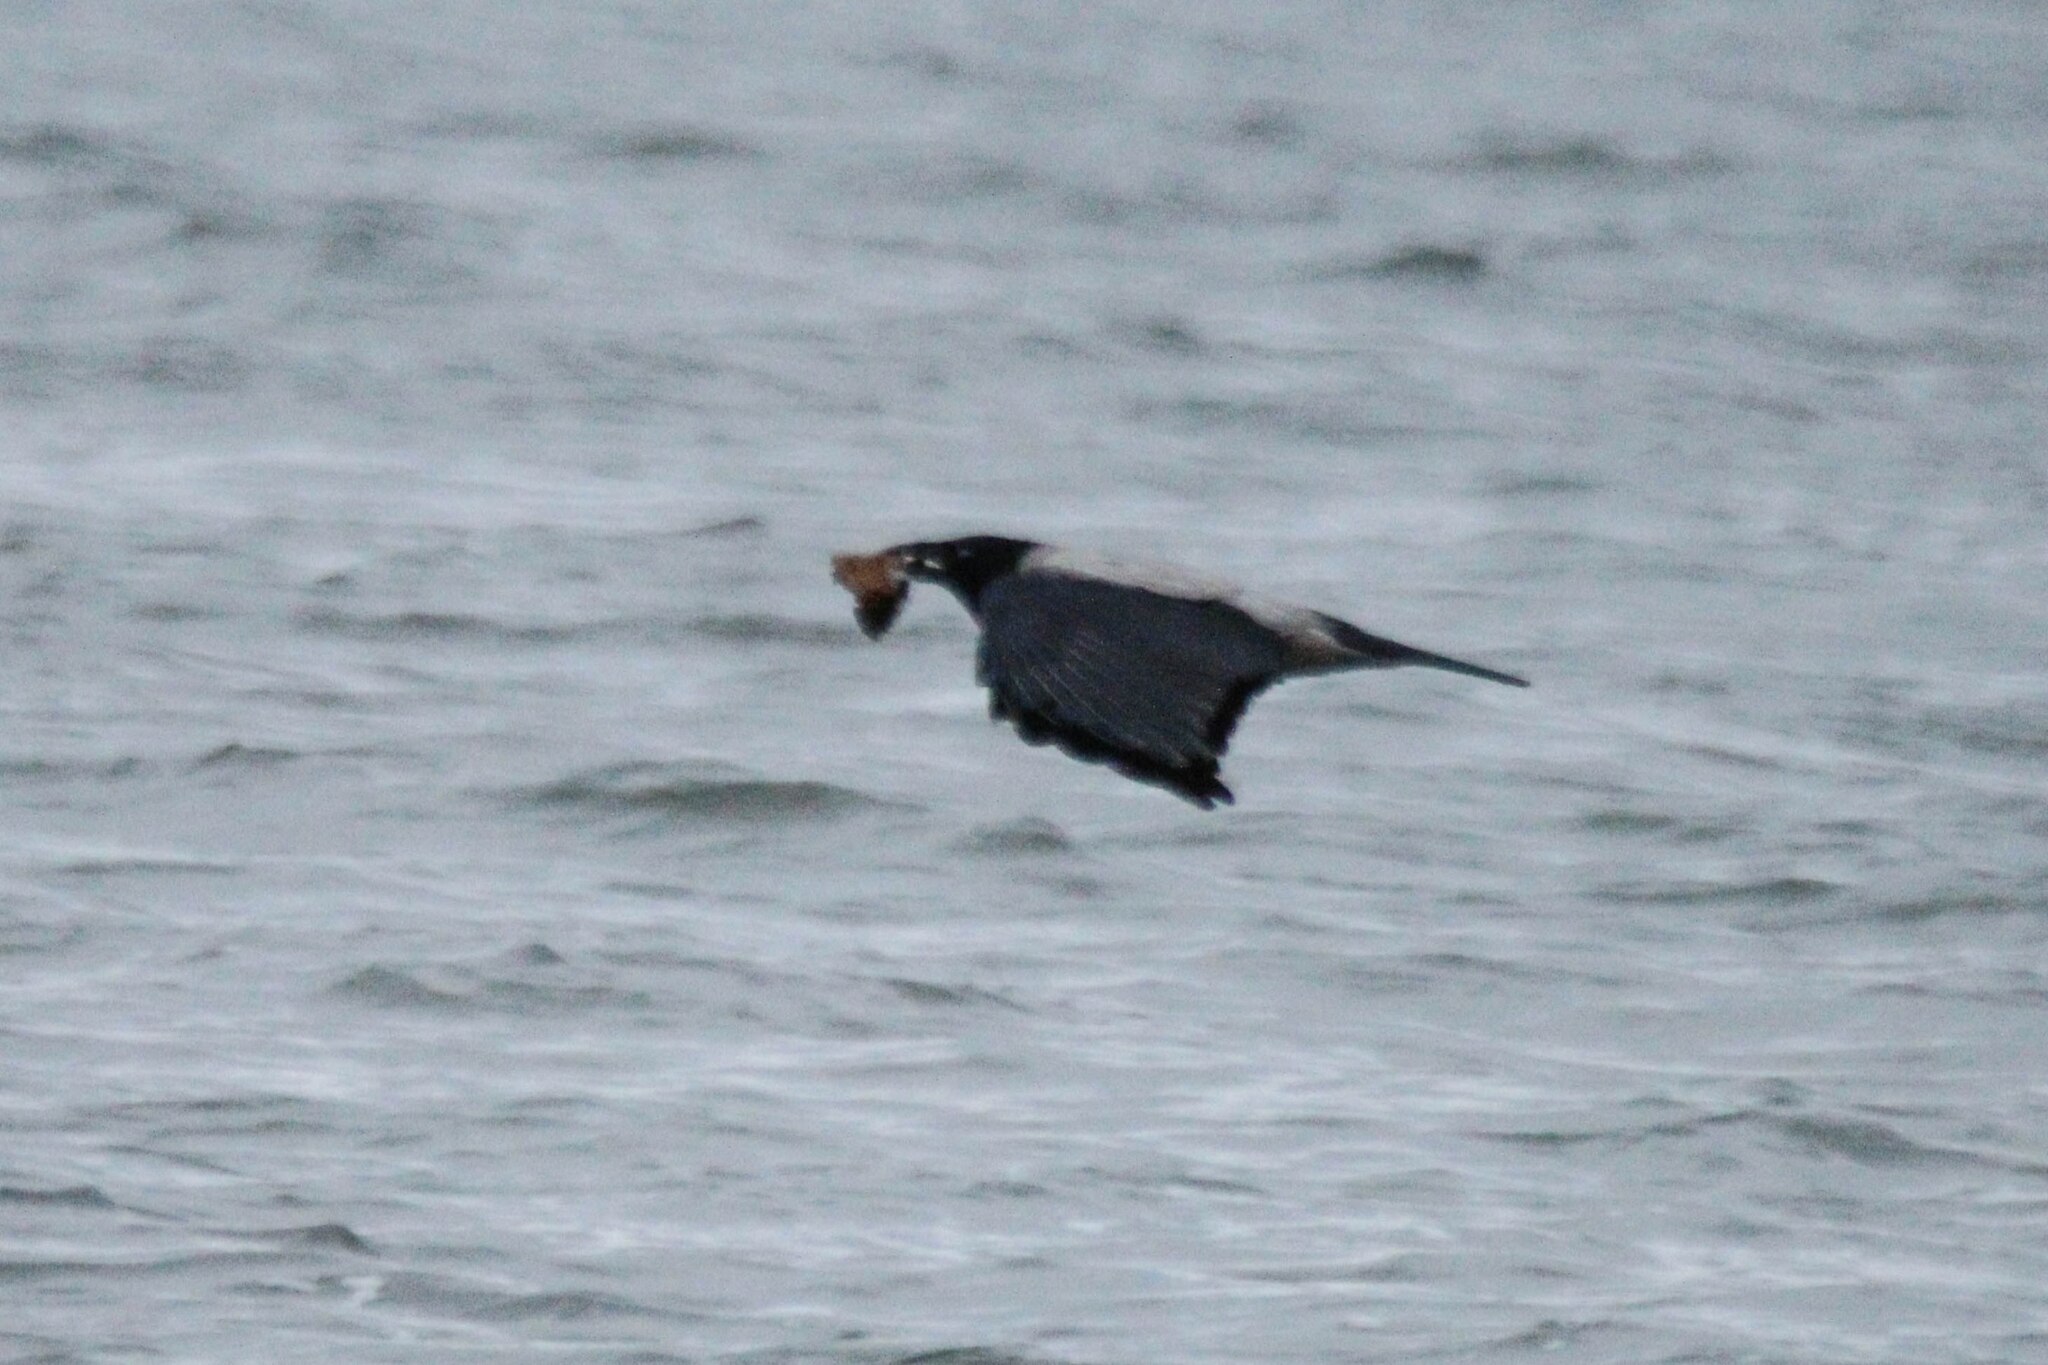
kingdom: Animalia
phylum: Chordata
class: Aves
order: Passeriformes
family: Corvidae
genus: Corvus
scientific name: Corvus cornix
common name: Hooded crow
